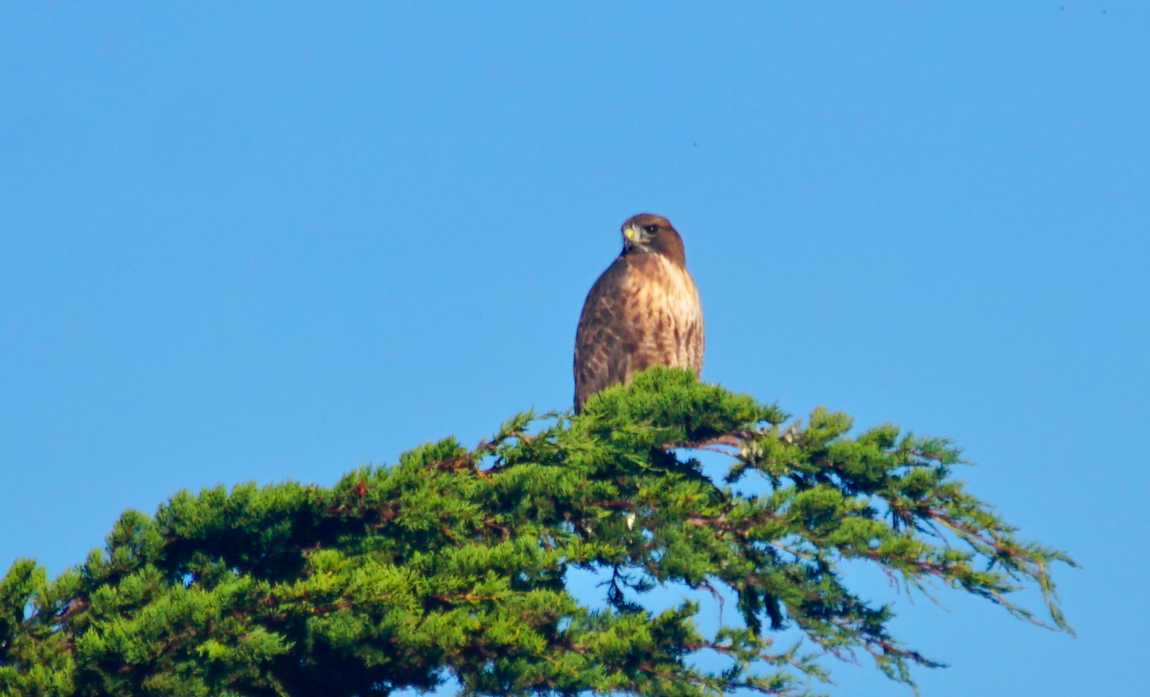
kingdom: Animalia
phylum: Chordata
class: Aves
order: Accipitriformes
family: Accipitridae
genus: Buteo
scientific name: Buteo jamaicensis
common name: Red-tailed hawk
